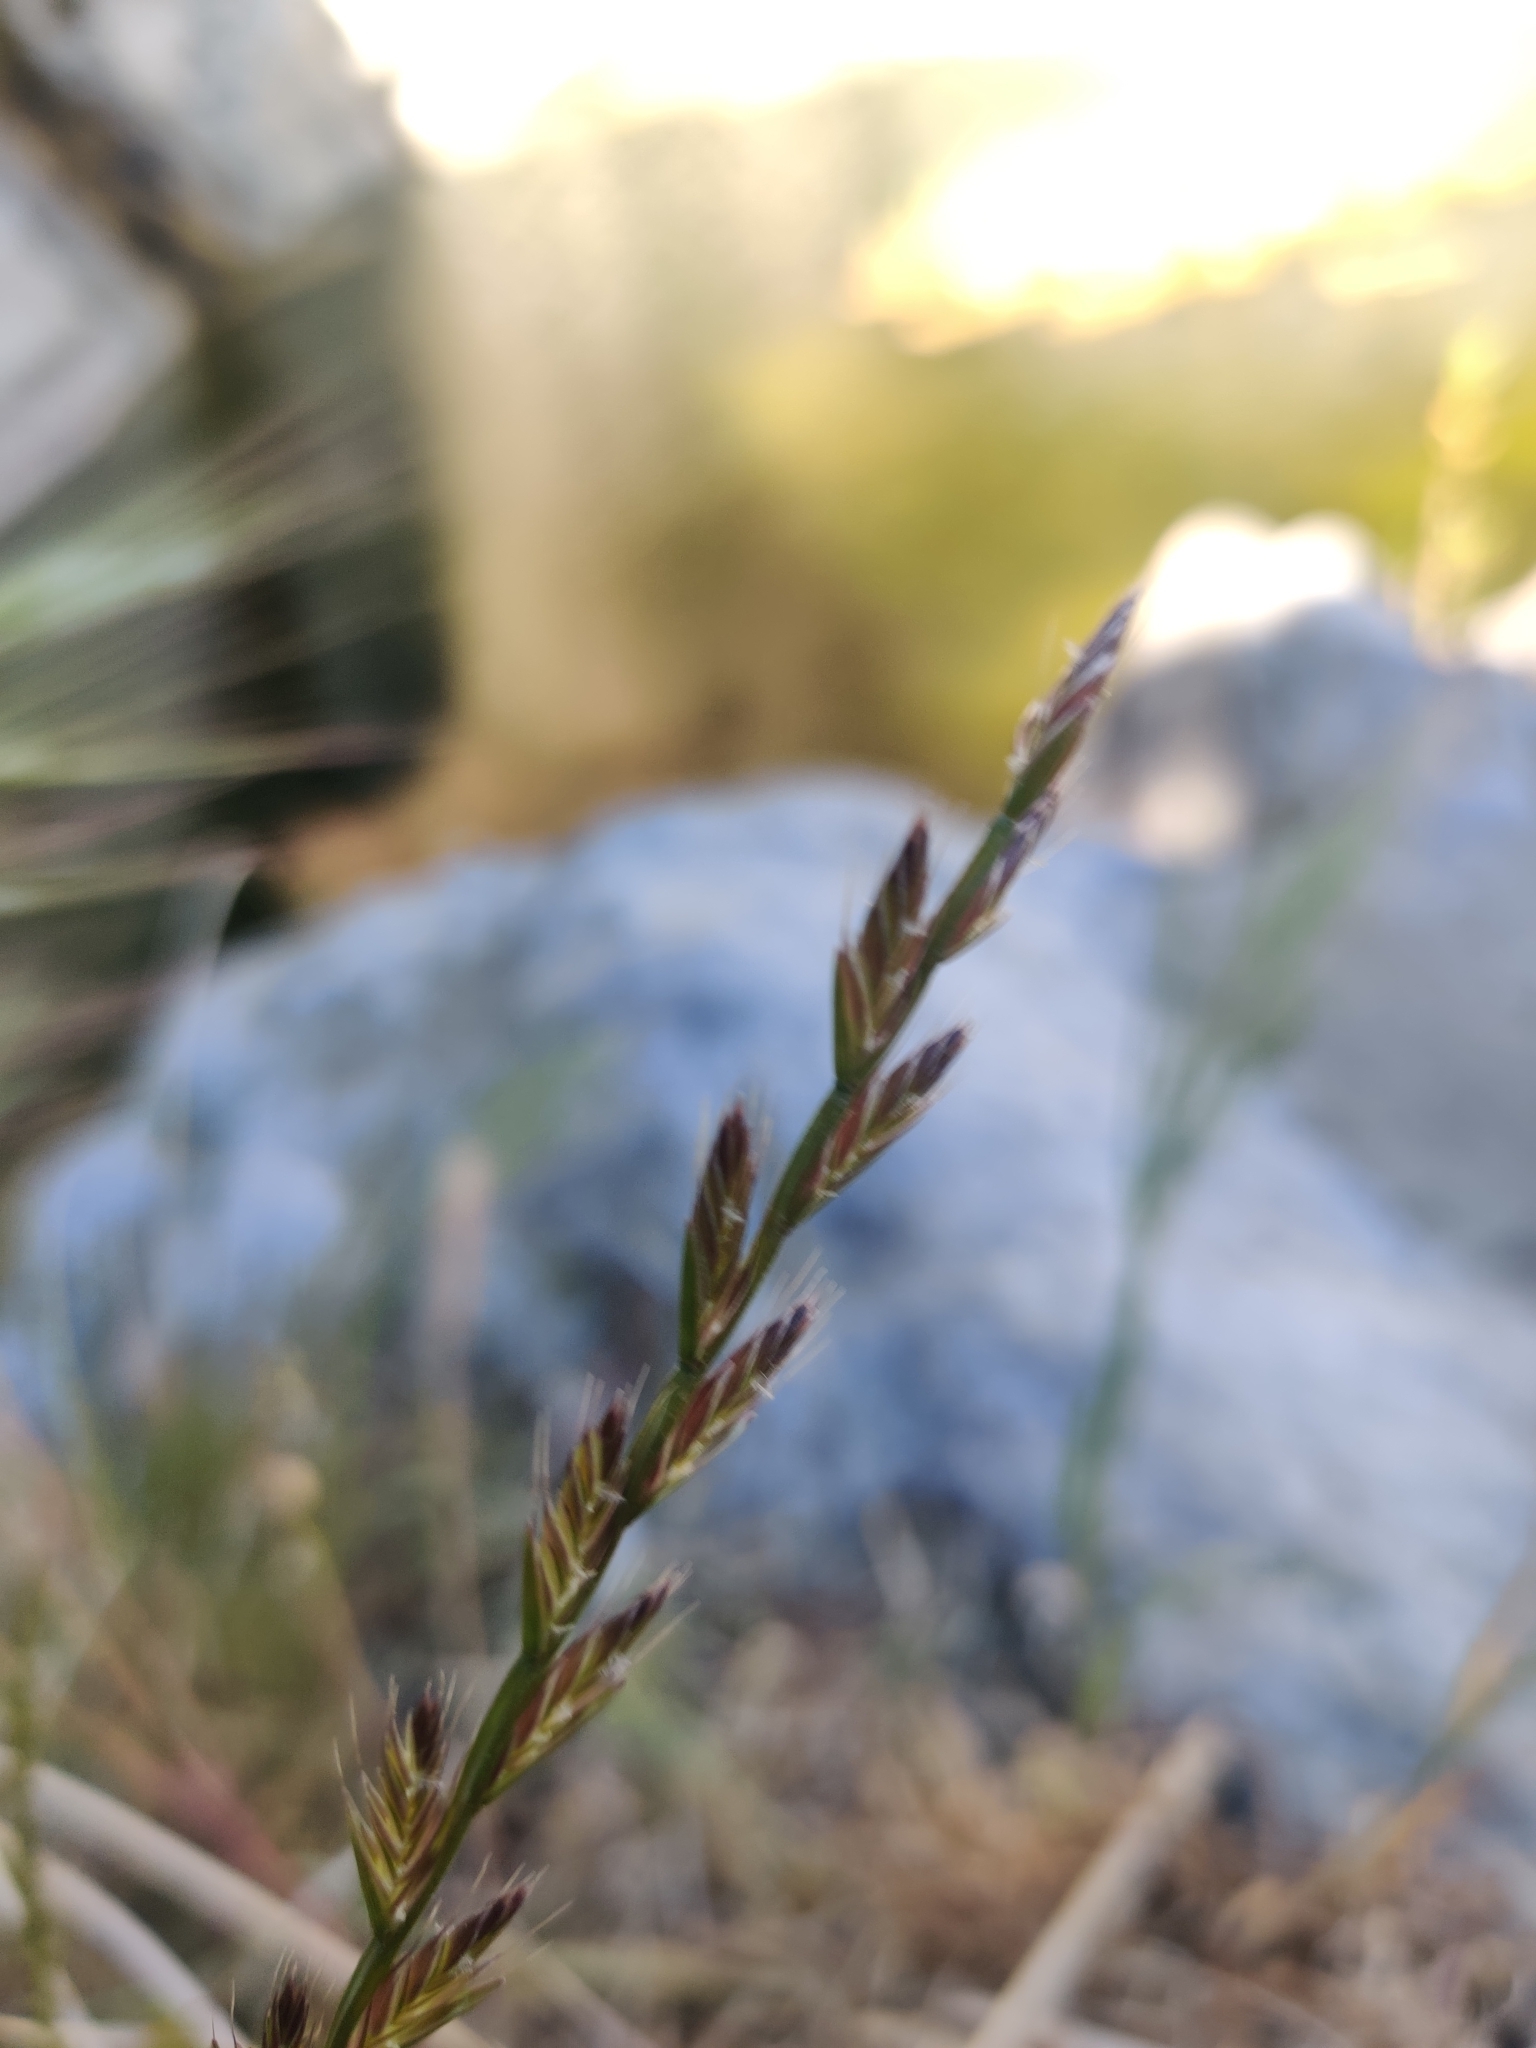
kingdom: Plantae
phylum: Tracheophyta
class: Liliopsida
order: Poales
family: Poaceae
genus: Lolium
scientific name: Lolium perenne
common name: Perennial ryegrass
